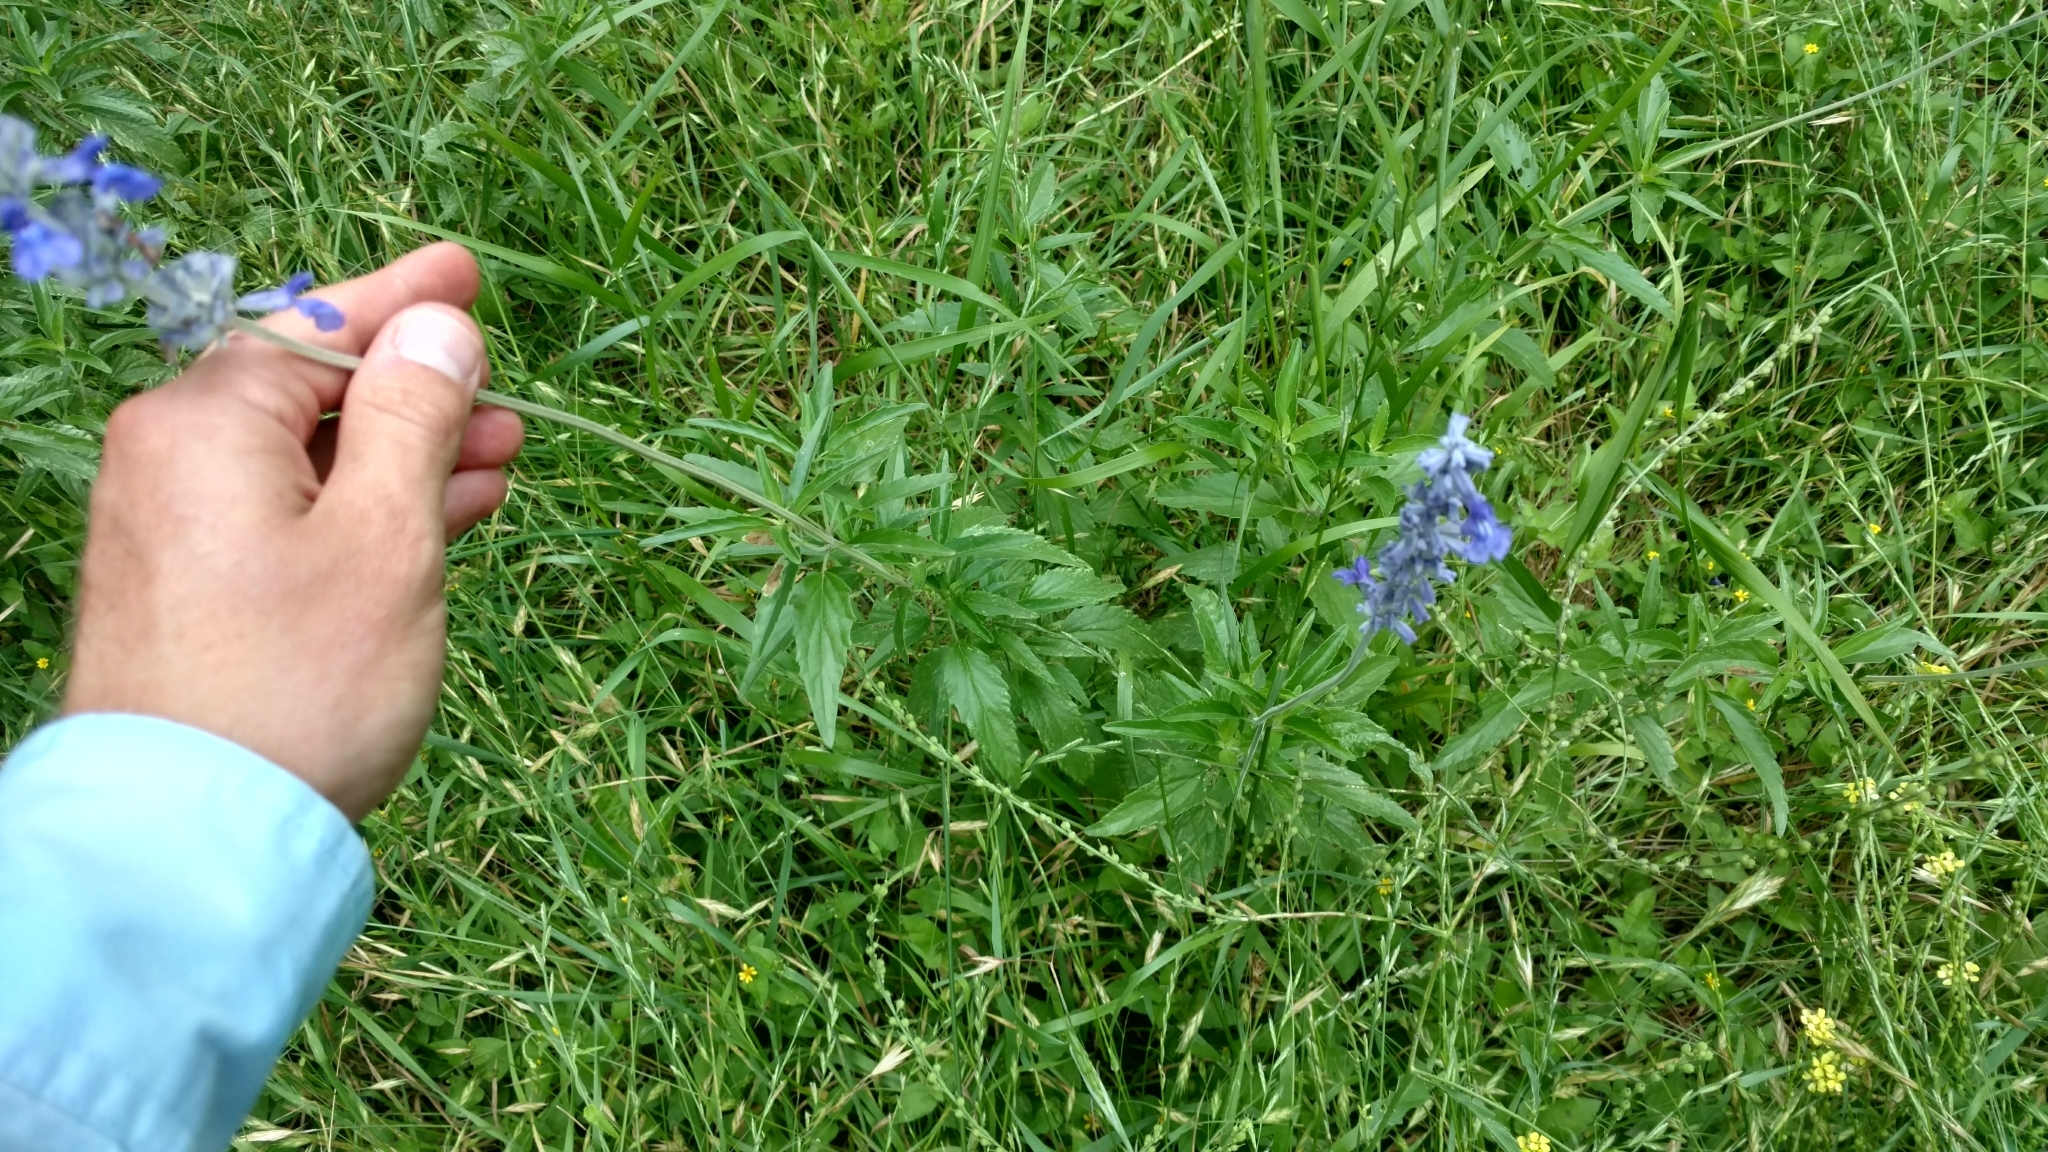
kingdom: Plantae
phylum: Tracheophyta
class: Magnoliopsida
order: Lamiales
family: Lamiaceae
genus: Salvia
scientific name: Salvia farinacea
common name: Mealy sage
